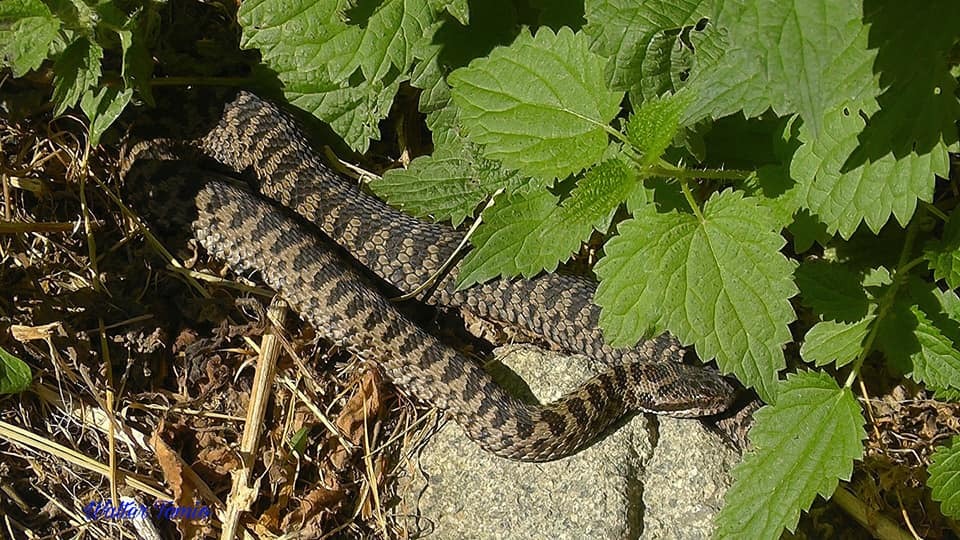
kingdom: Animalia
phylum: Chordata
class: Squamata
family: Viperidae
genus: Vipera
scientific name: Vipera berus
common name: Adder
